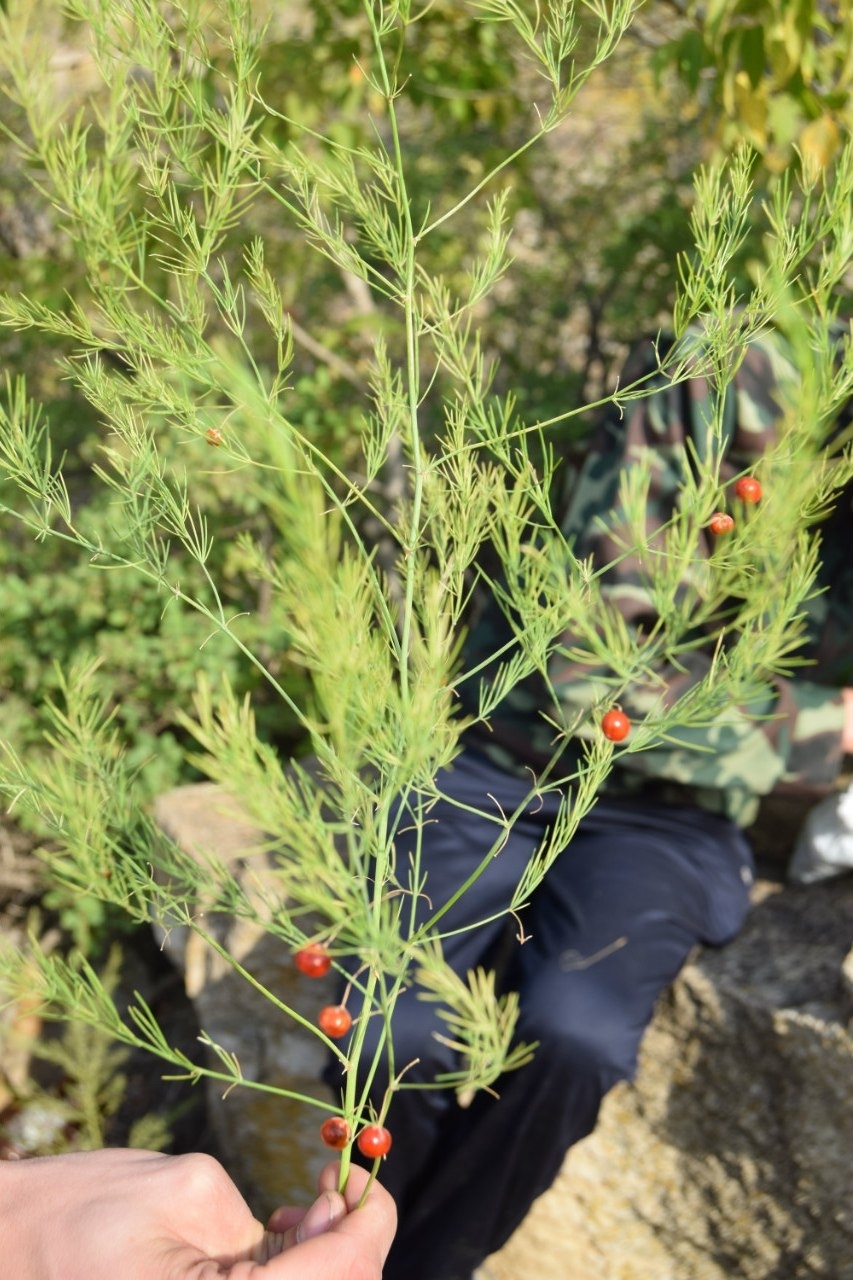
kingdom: Plantae
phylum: Tracheophyta
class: Liliopsida
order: Asparagales
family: Asparagaceae
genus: Asparagus
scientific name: Asparagus officinalis
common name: Garden asparagus
